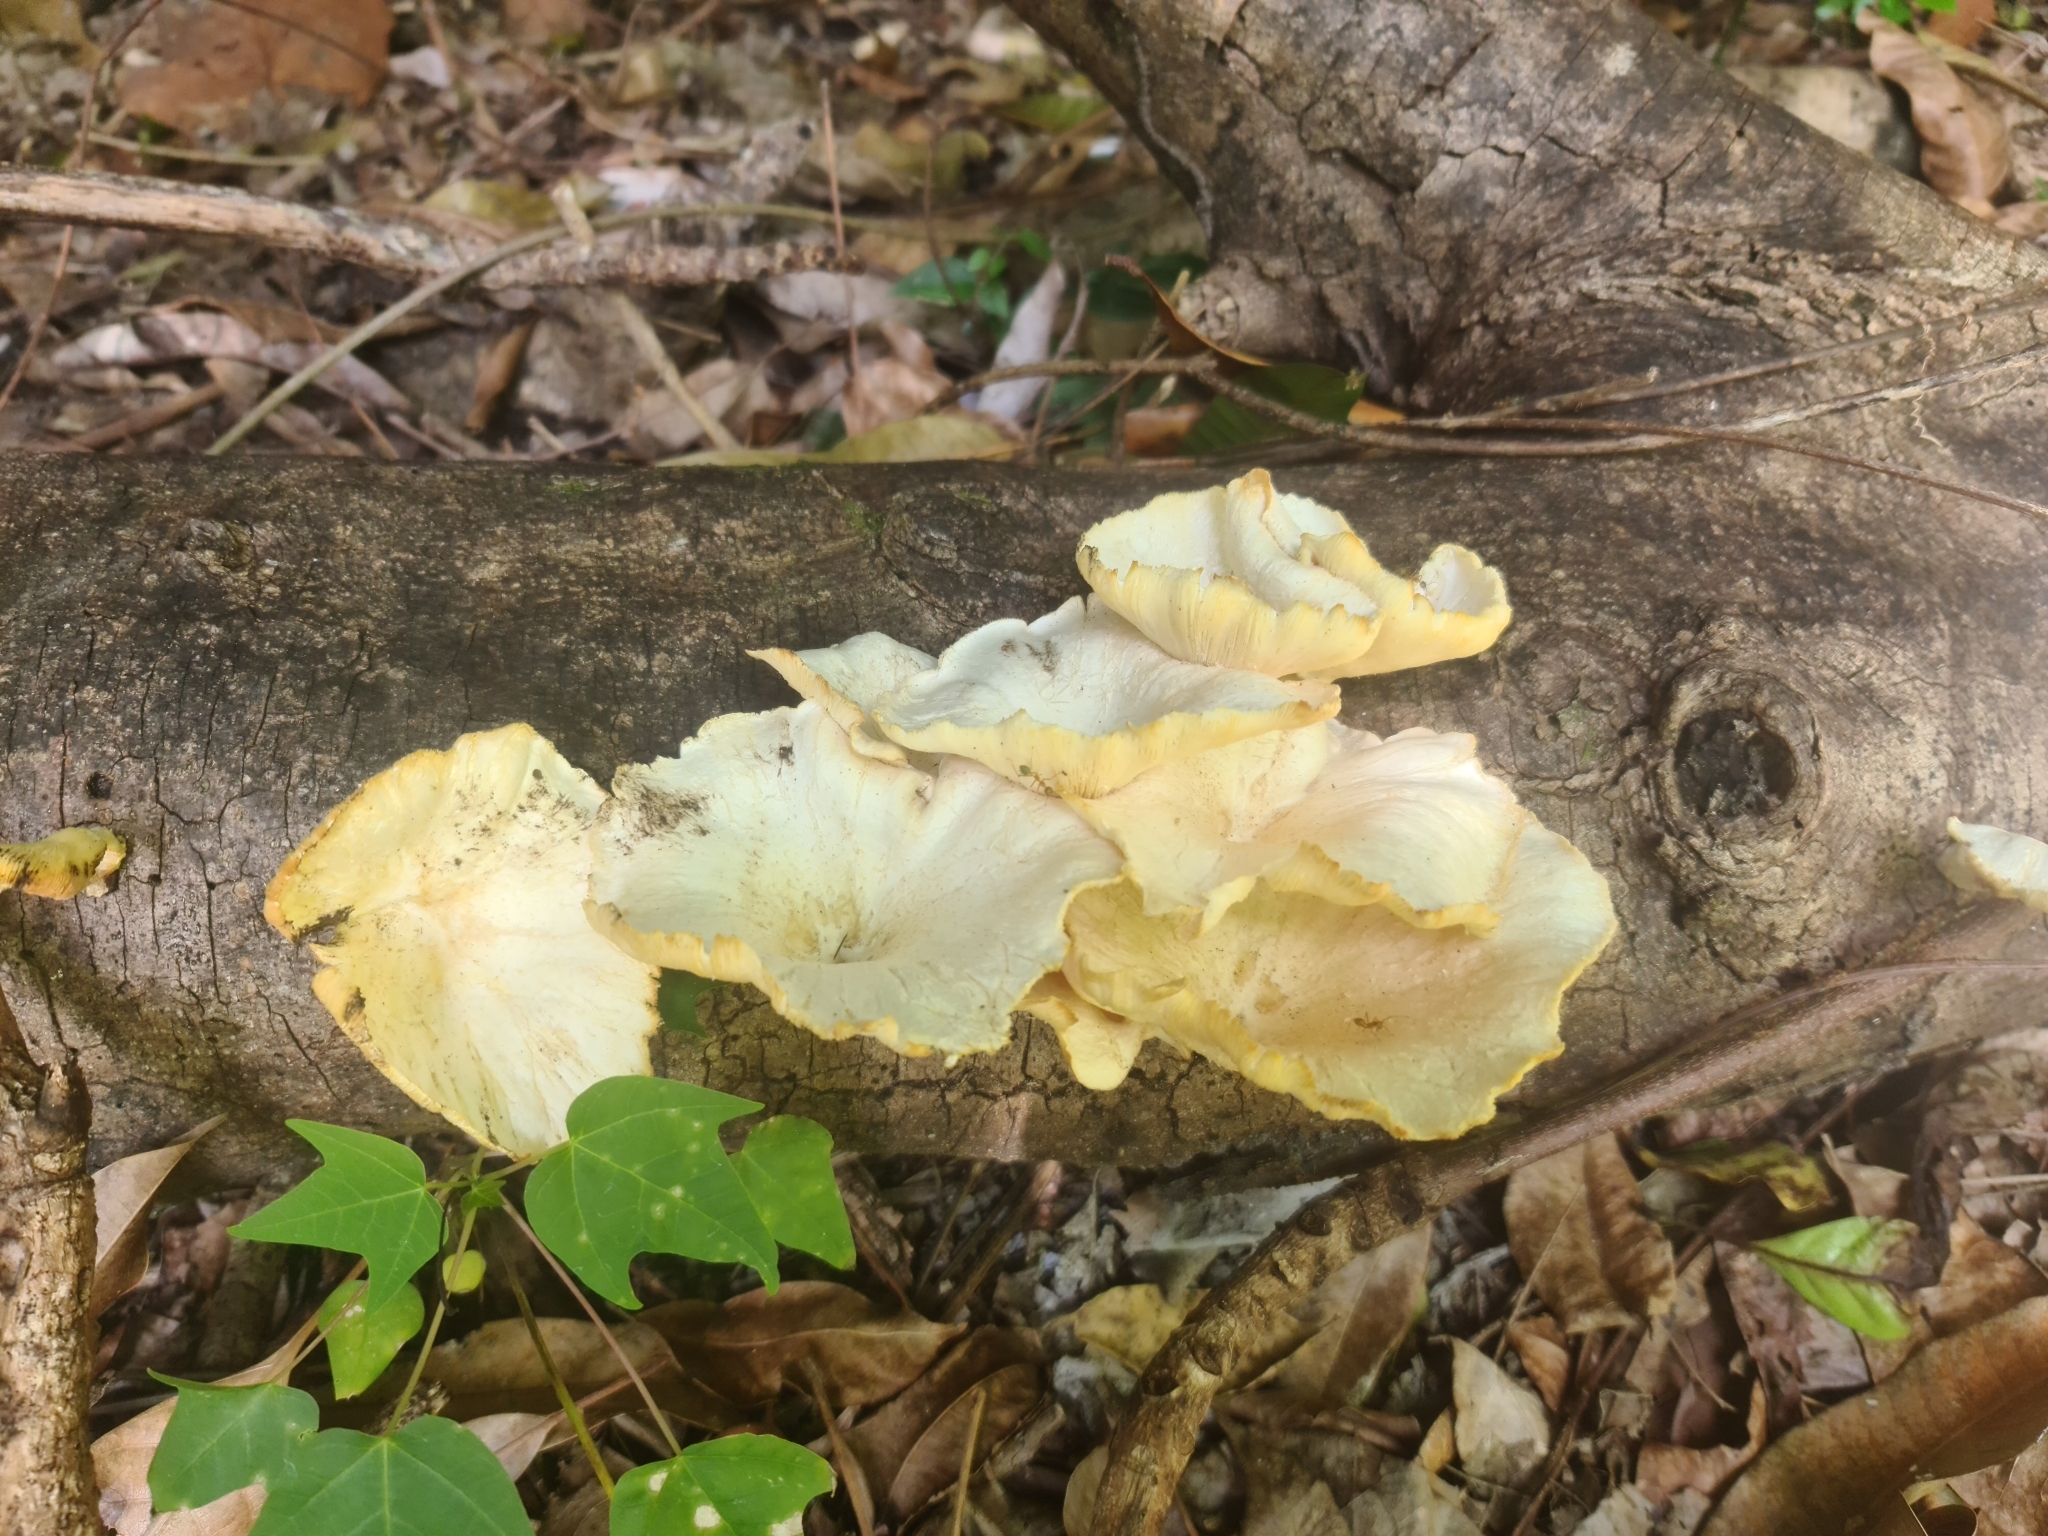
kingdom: Fungi
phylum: Basidiomycota
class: Agaricomycetes
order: Polyporales
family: Polyporaceae
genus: Lentinus
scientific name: Lentinus sajor-caju
